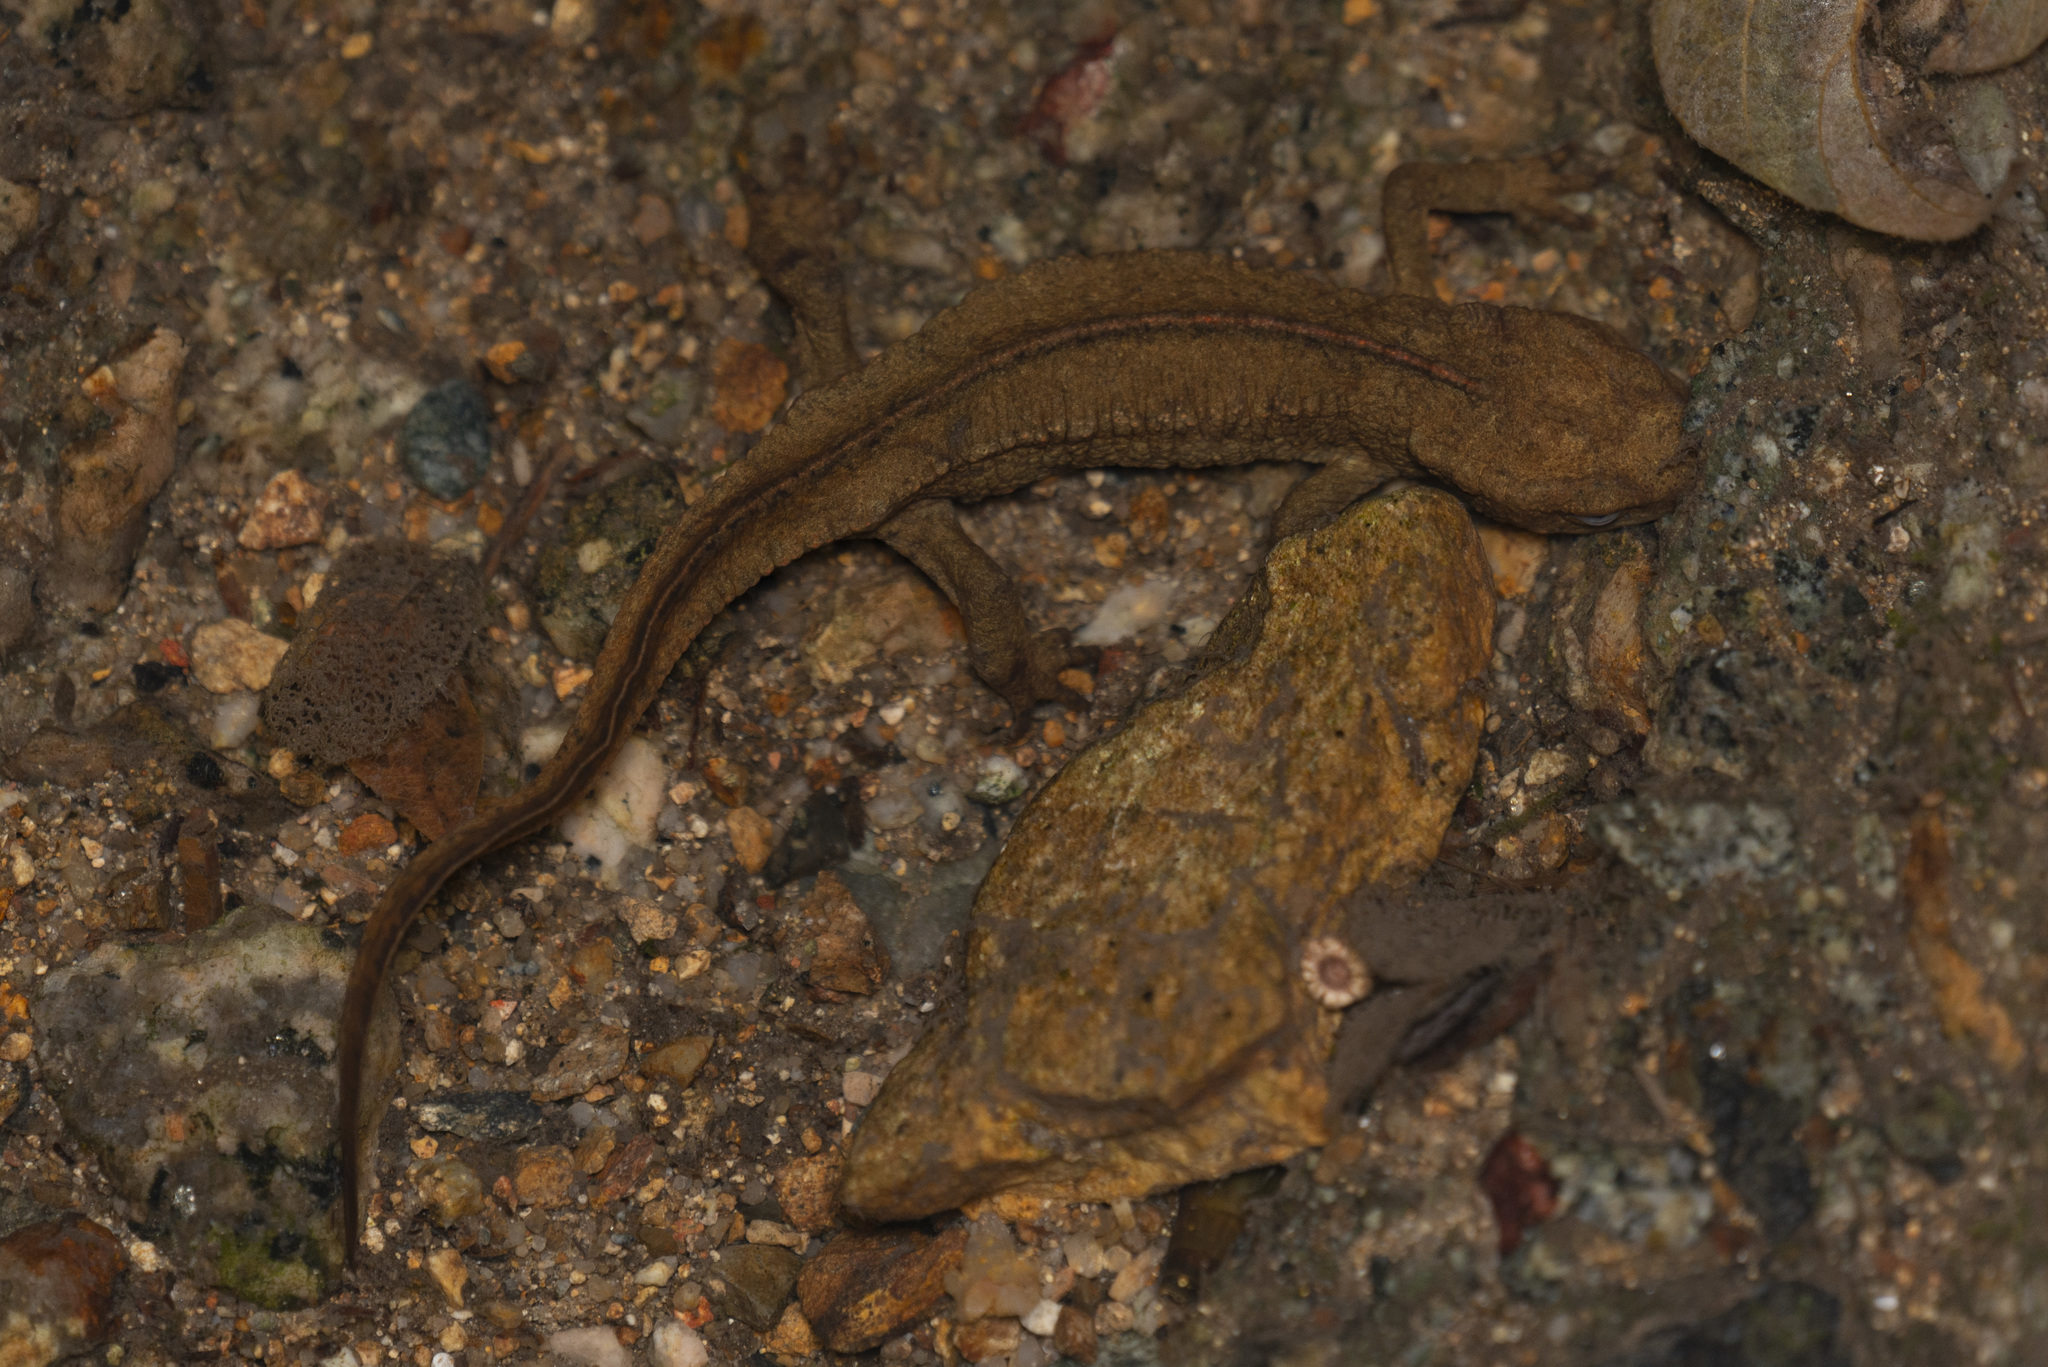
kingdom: Animalia
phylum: Chordata
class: Amphibia
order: Caudata
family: Salamandridae
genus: Paramesotriton
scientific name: Paramesotriton hongkongensis
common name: Hong kong warty newt
